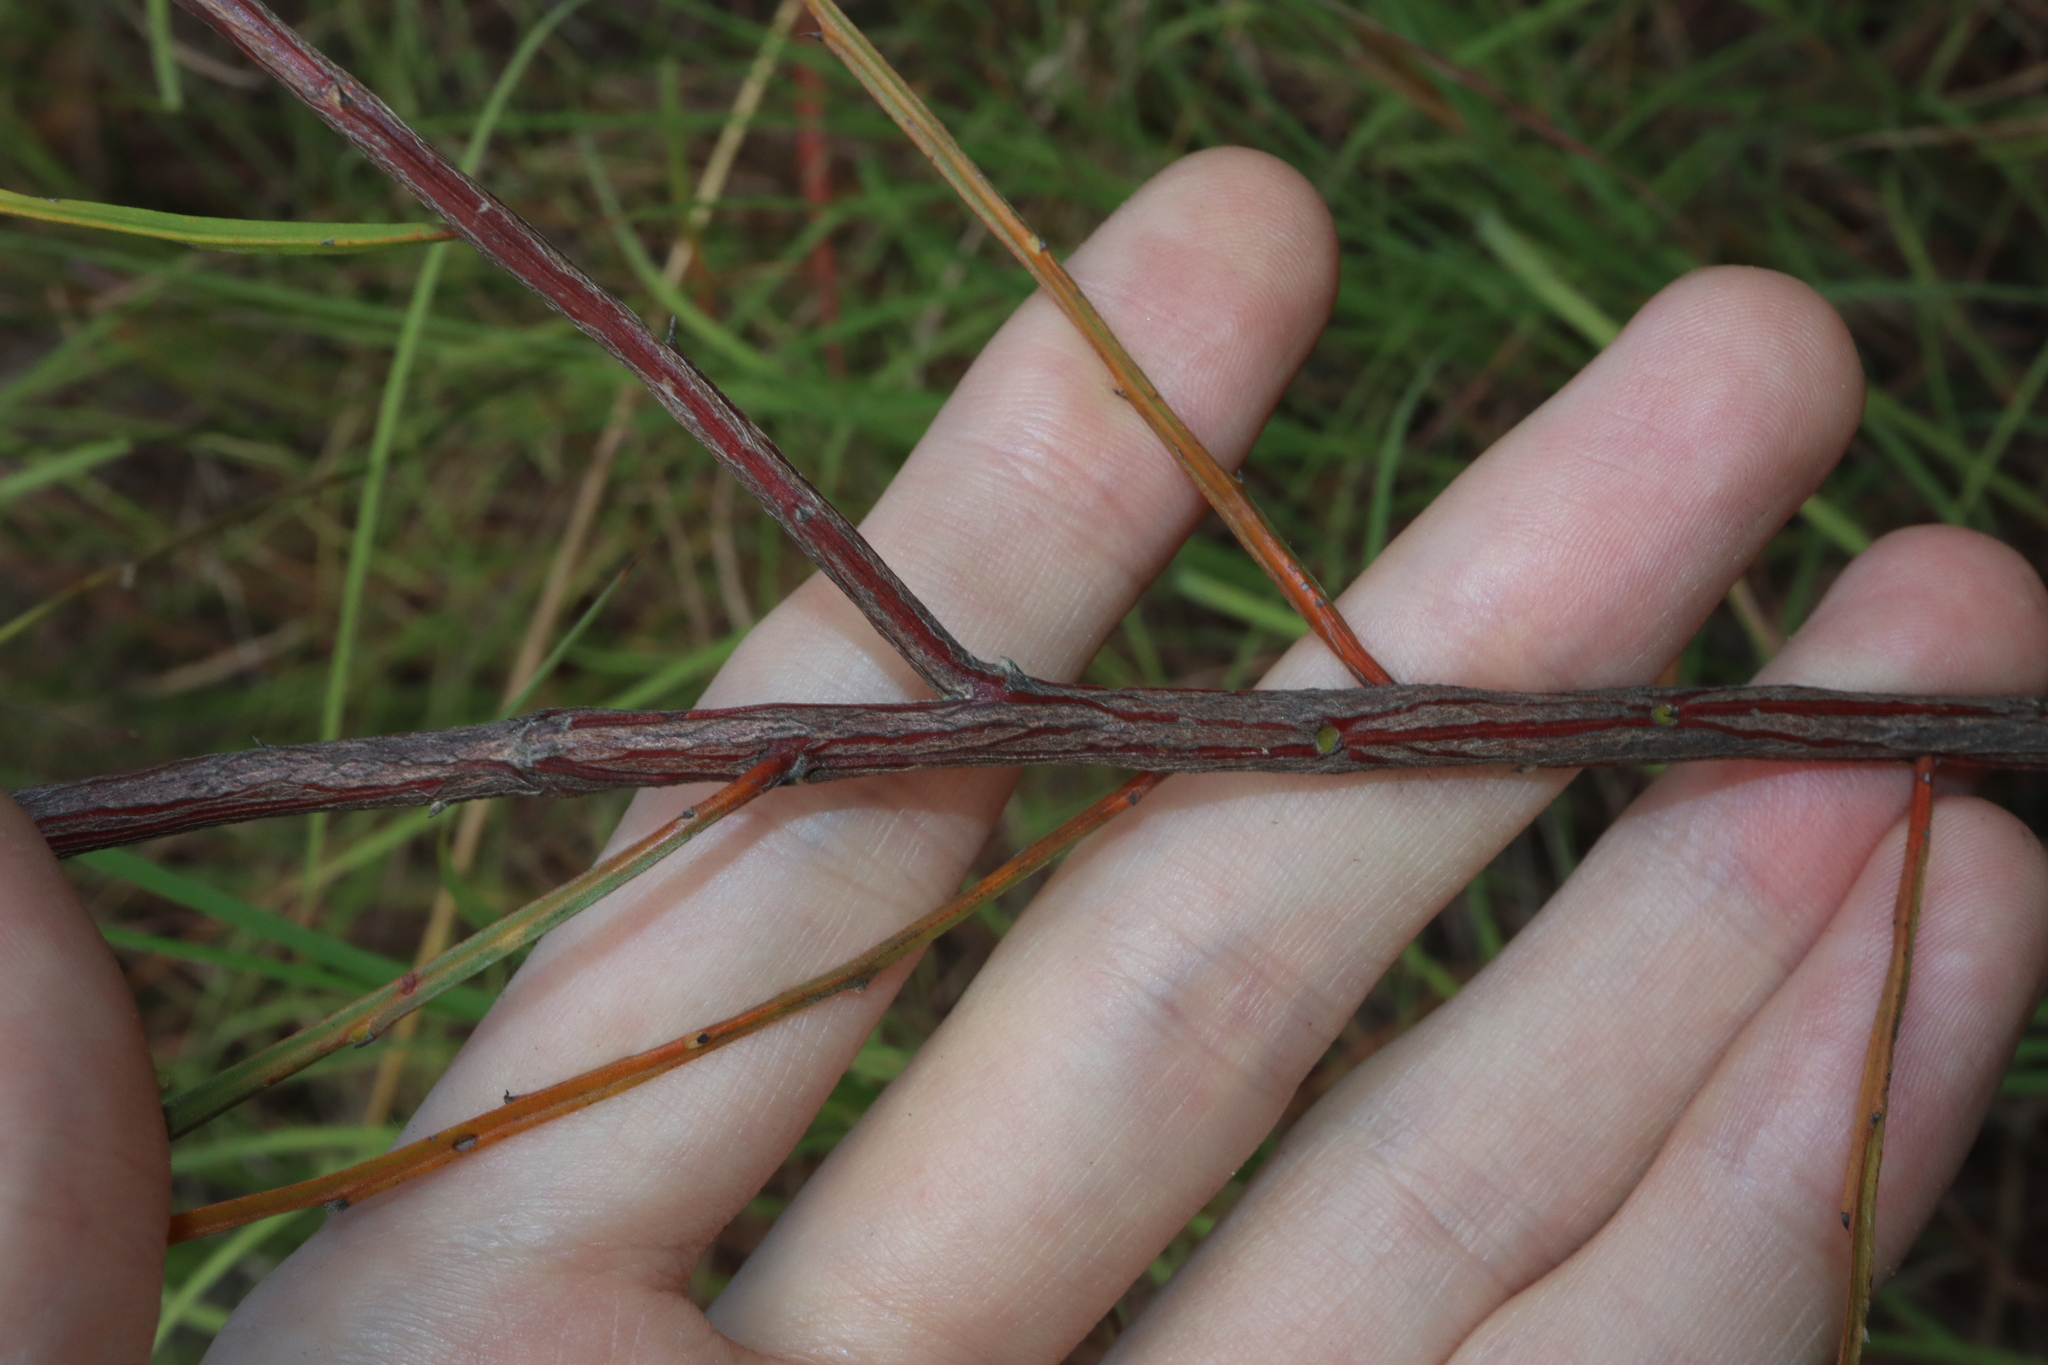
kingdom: Plantae
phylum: Tracheophyta
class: Magnoliopsida
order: Fabales
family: Fabaceae
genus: Jacksonia
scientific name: Jacksonia thesioides
